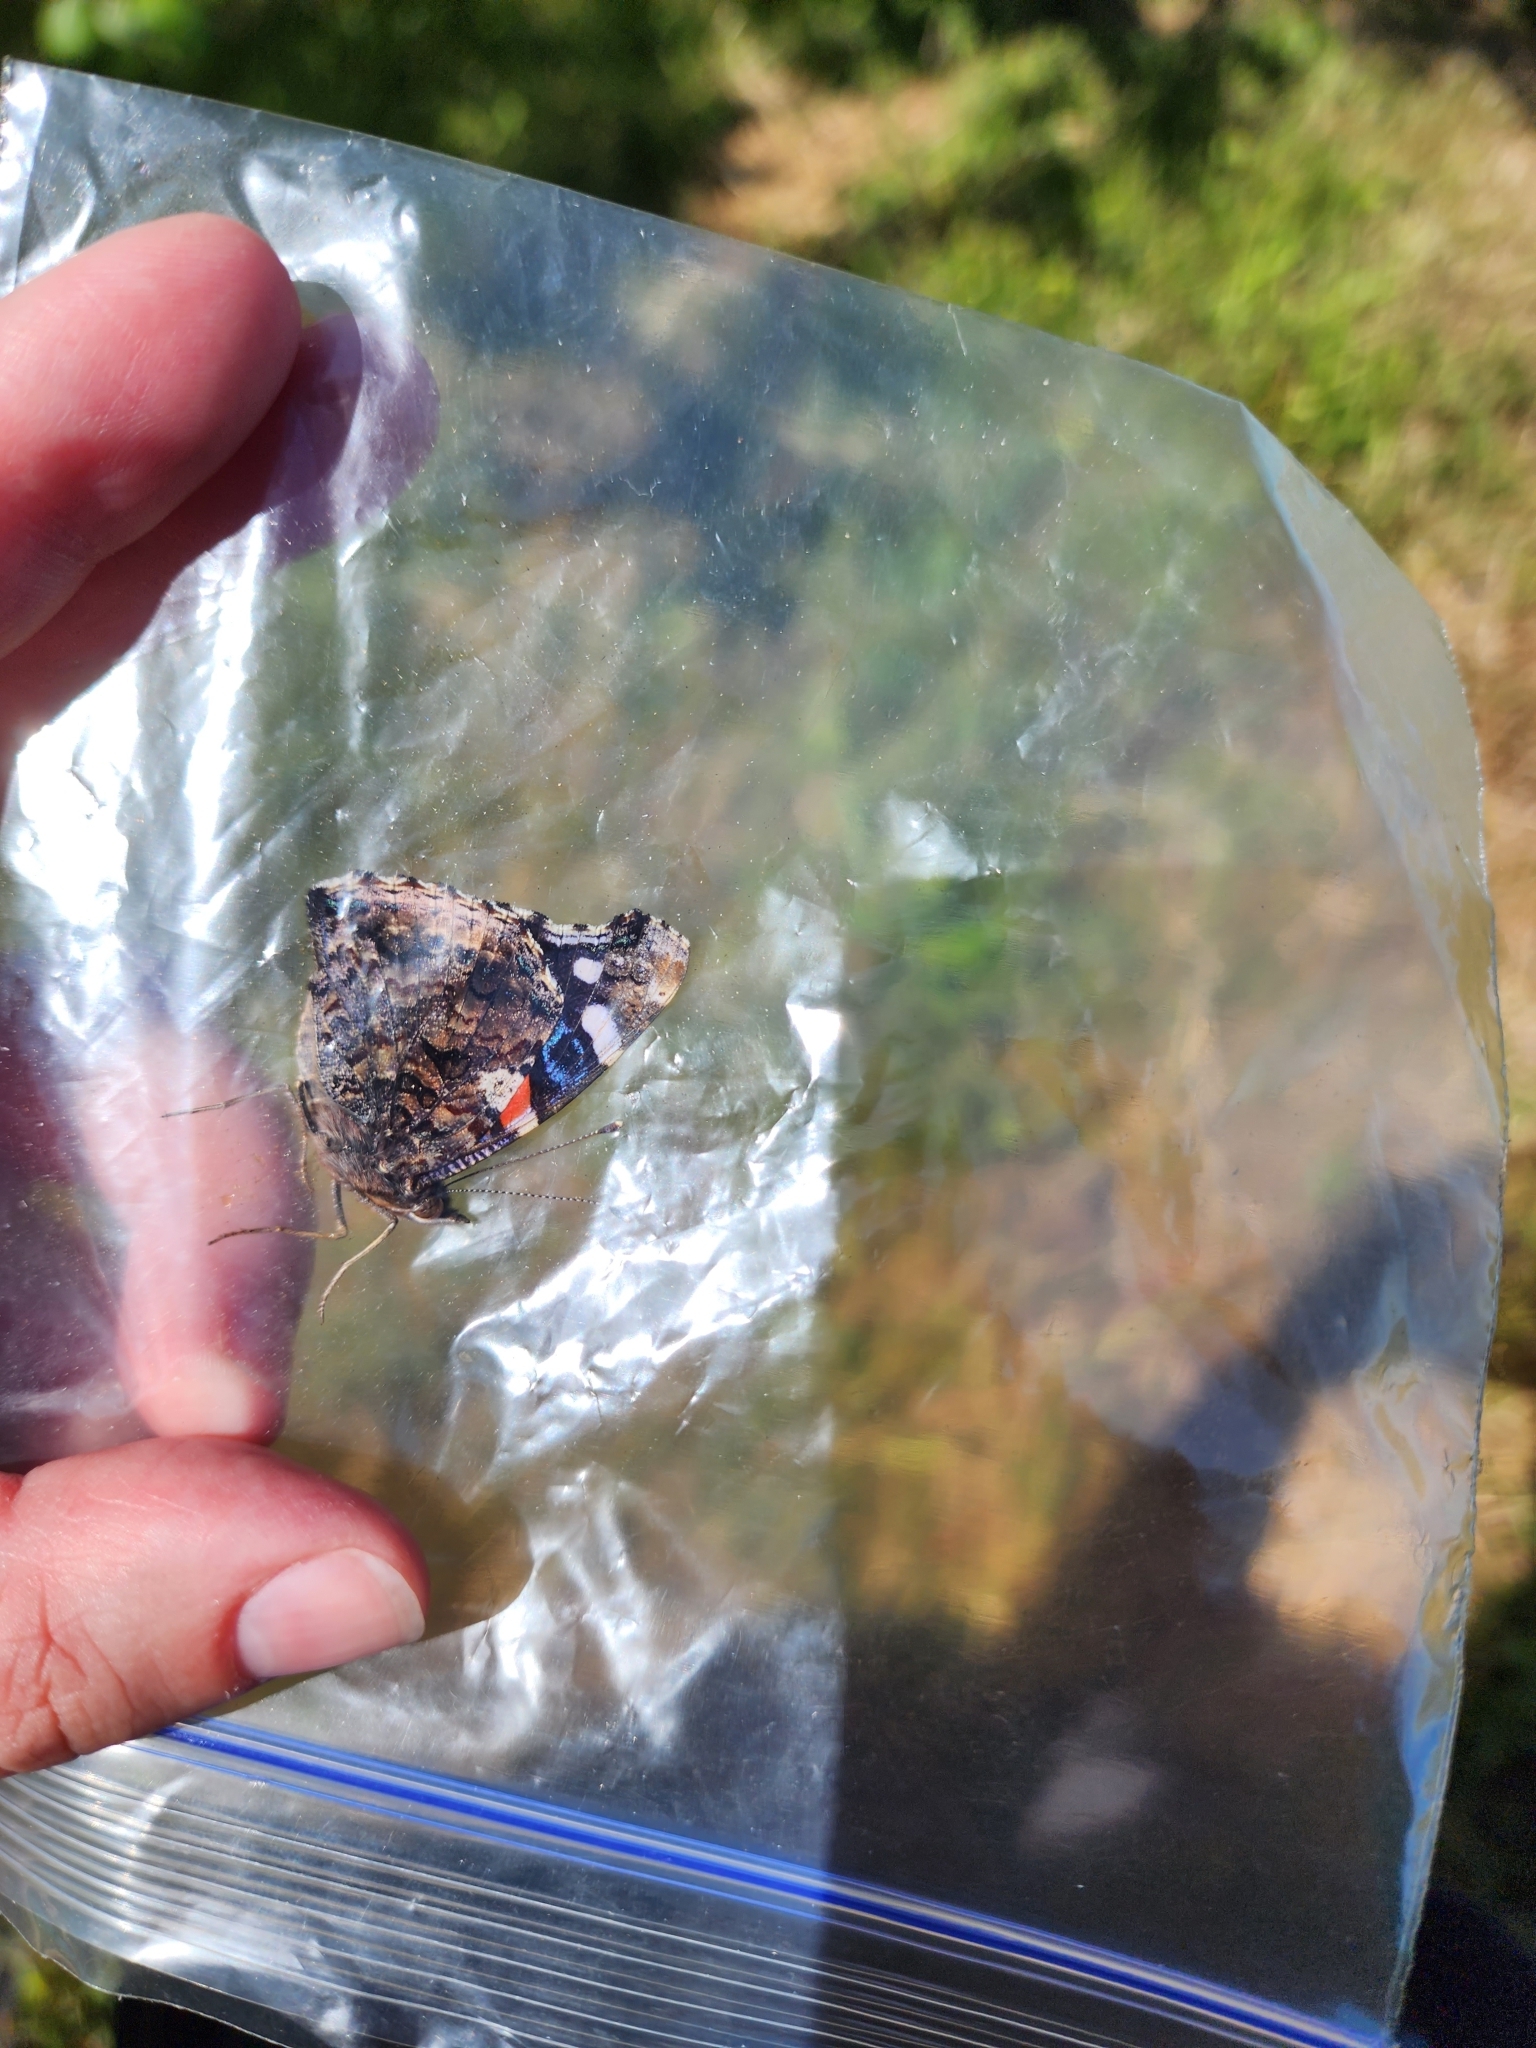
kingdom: Animalia
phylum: Arthropoda
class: Insecta
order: Lepidoptera
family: Nymphalidae
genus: Vanessa
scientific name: Vanessa atalanta
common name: Red admiral
